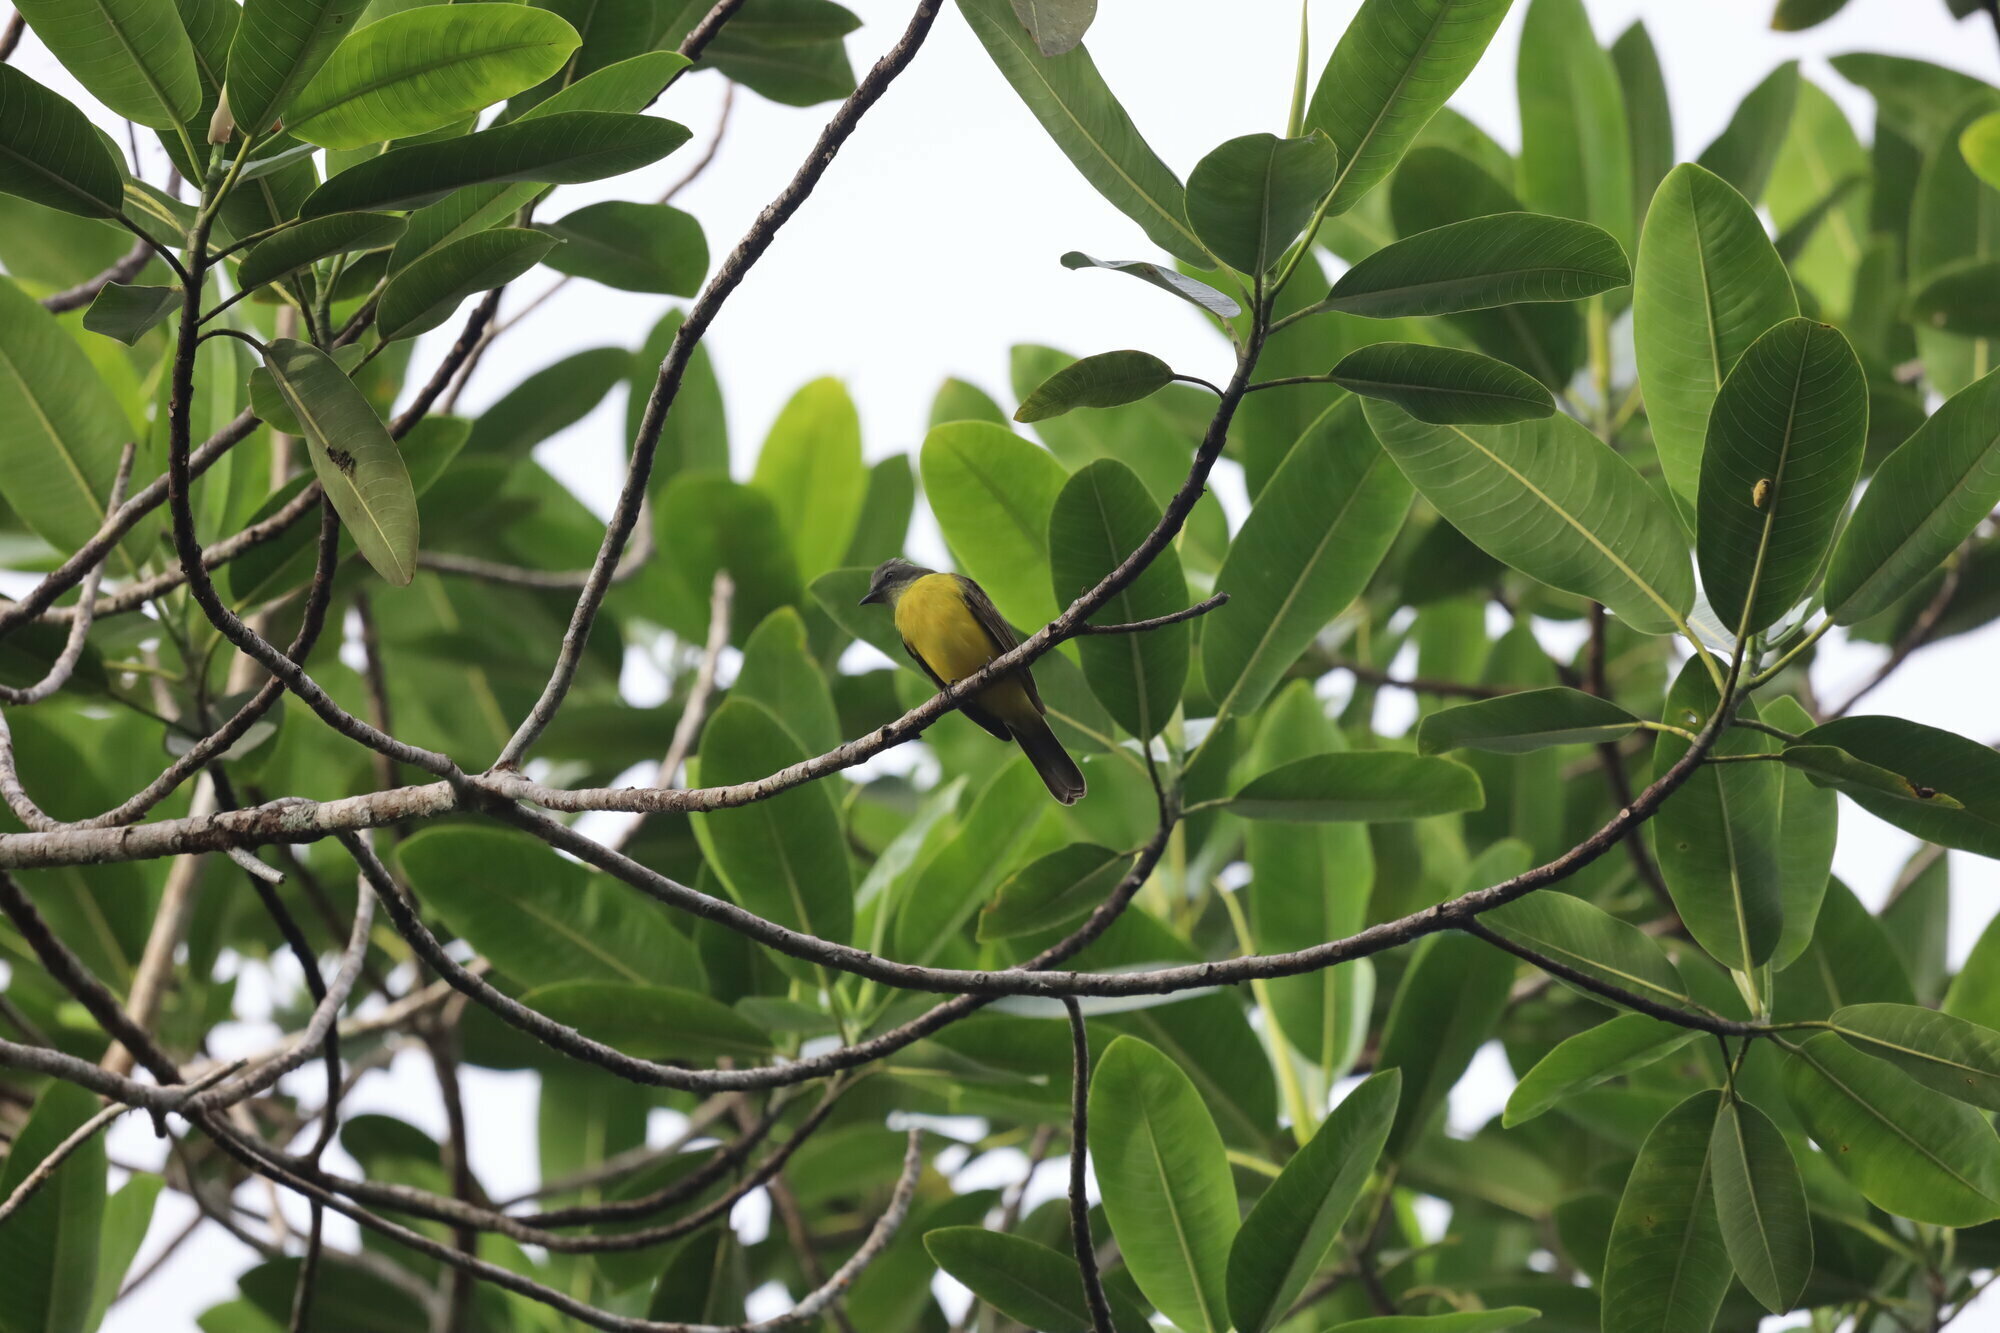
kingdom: Animalia
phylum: Chordata
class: Aves
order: Passeriformes
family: Tyrannidae
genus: Myiozetetes
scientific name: Myiozetetes granadensis
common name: Gray-capped flycatcher
